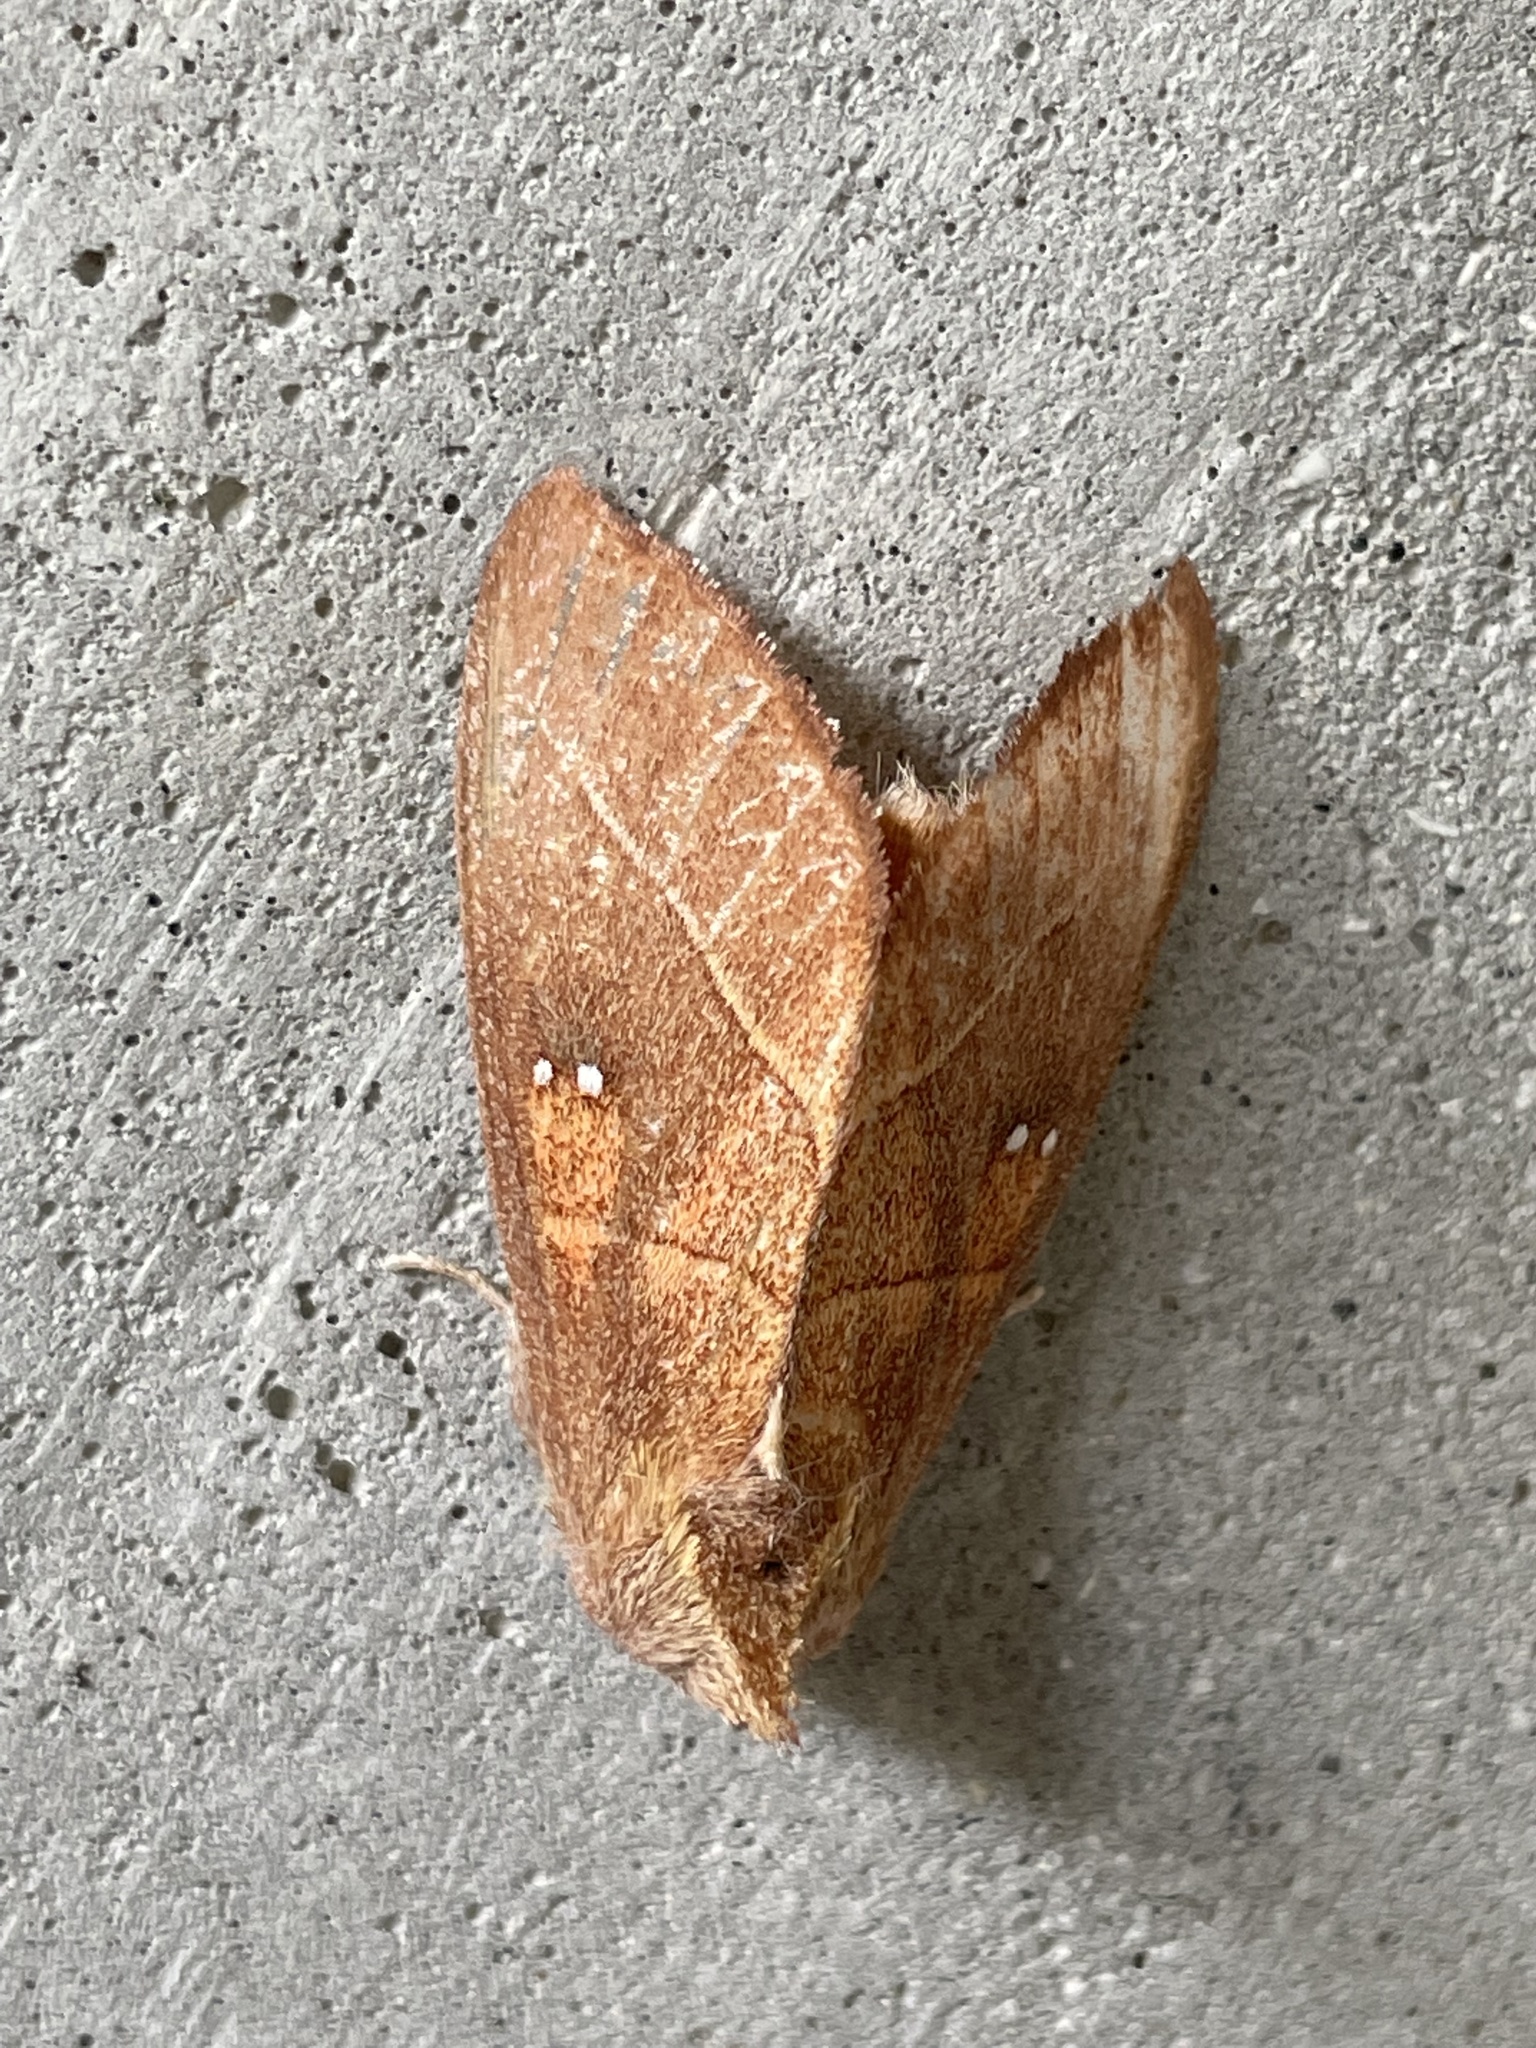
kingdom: Animalia
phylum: Arthropoda
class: Insecta
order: Lepidoptera
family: Notodontidae
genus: Nadata
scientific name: Nadata gibbosa
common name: White-dotted prominent
